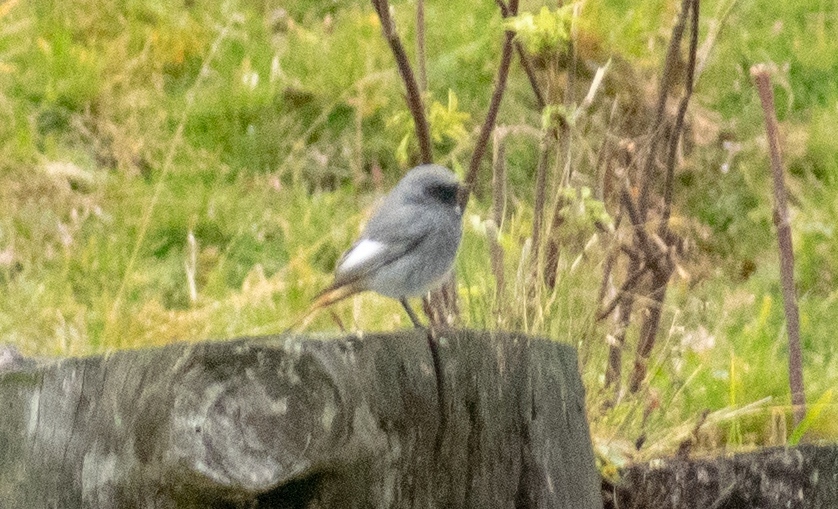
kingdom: Animalia
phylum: Chordata
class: Aves
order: Passeriformes
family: Muscicapidae
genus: Phoenicurus
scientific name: Phoenicurus ochruros
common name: Black redstart
